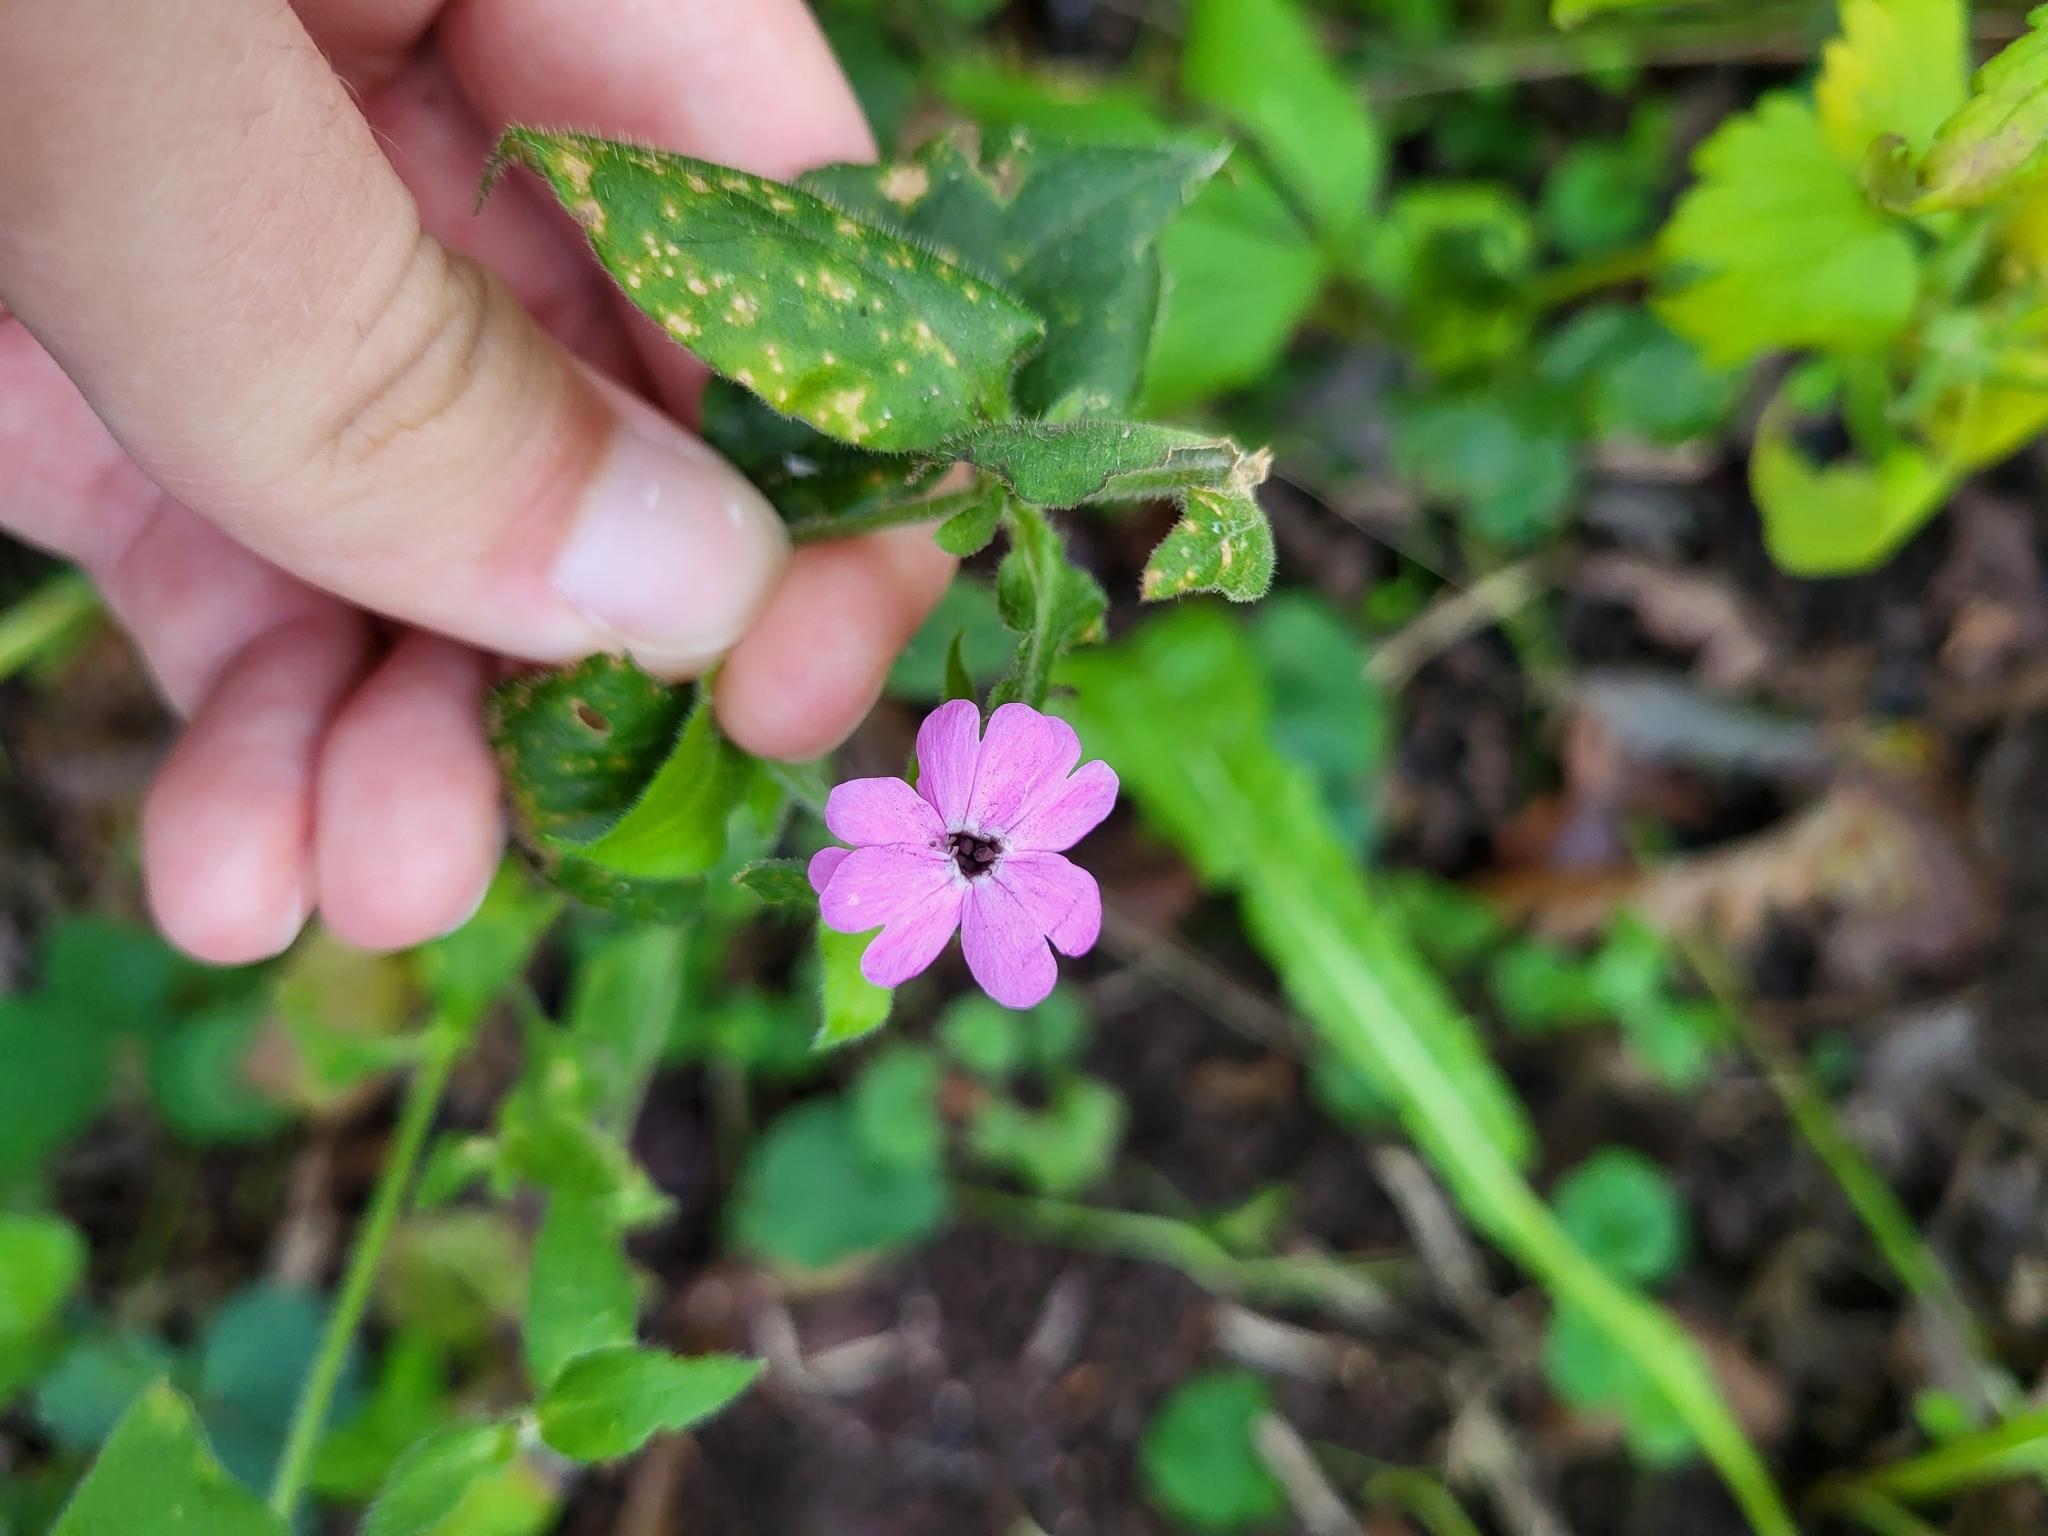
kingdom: Plantae
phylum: Tracheophyta
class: Magnoliopsida
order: Caryophyllales
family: Caryophyllaceae
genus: Silene
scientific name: Silene dioica
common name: Red campion
